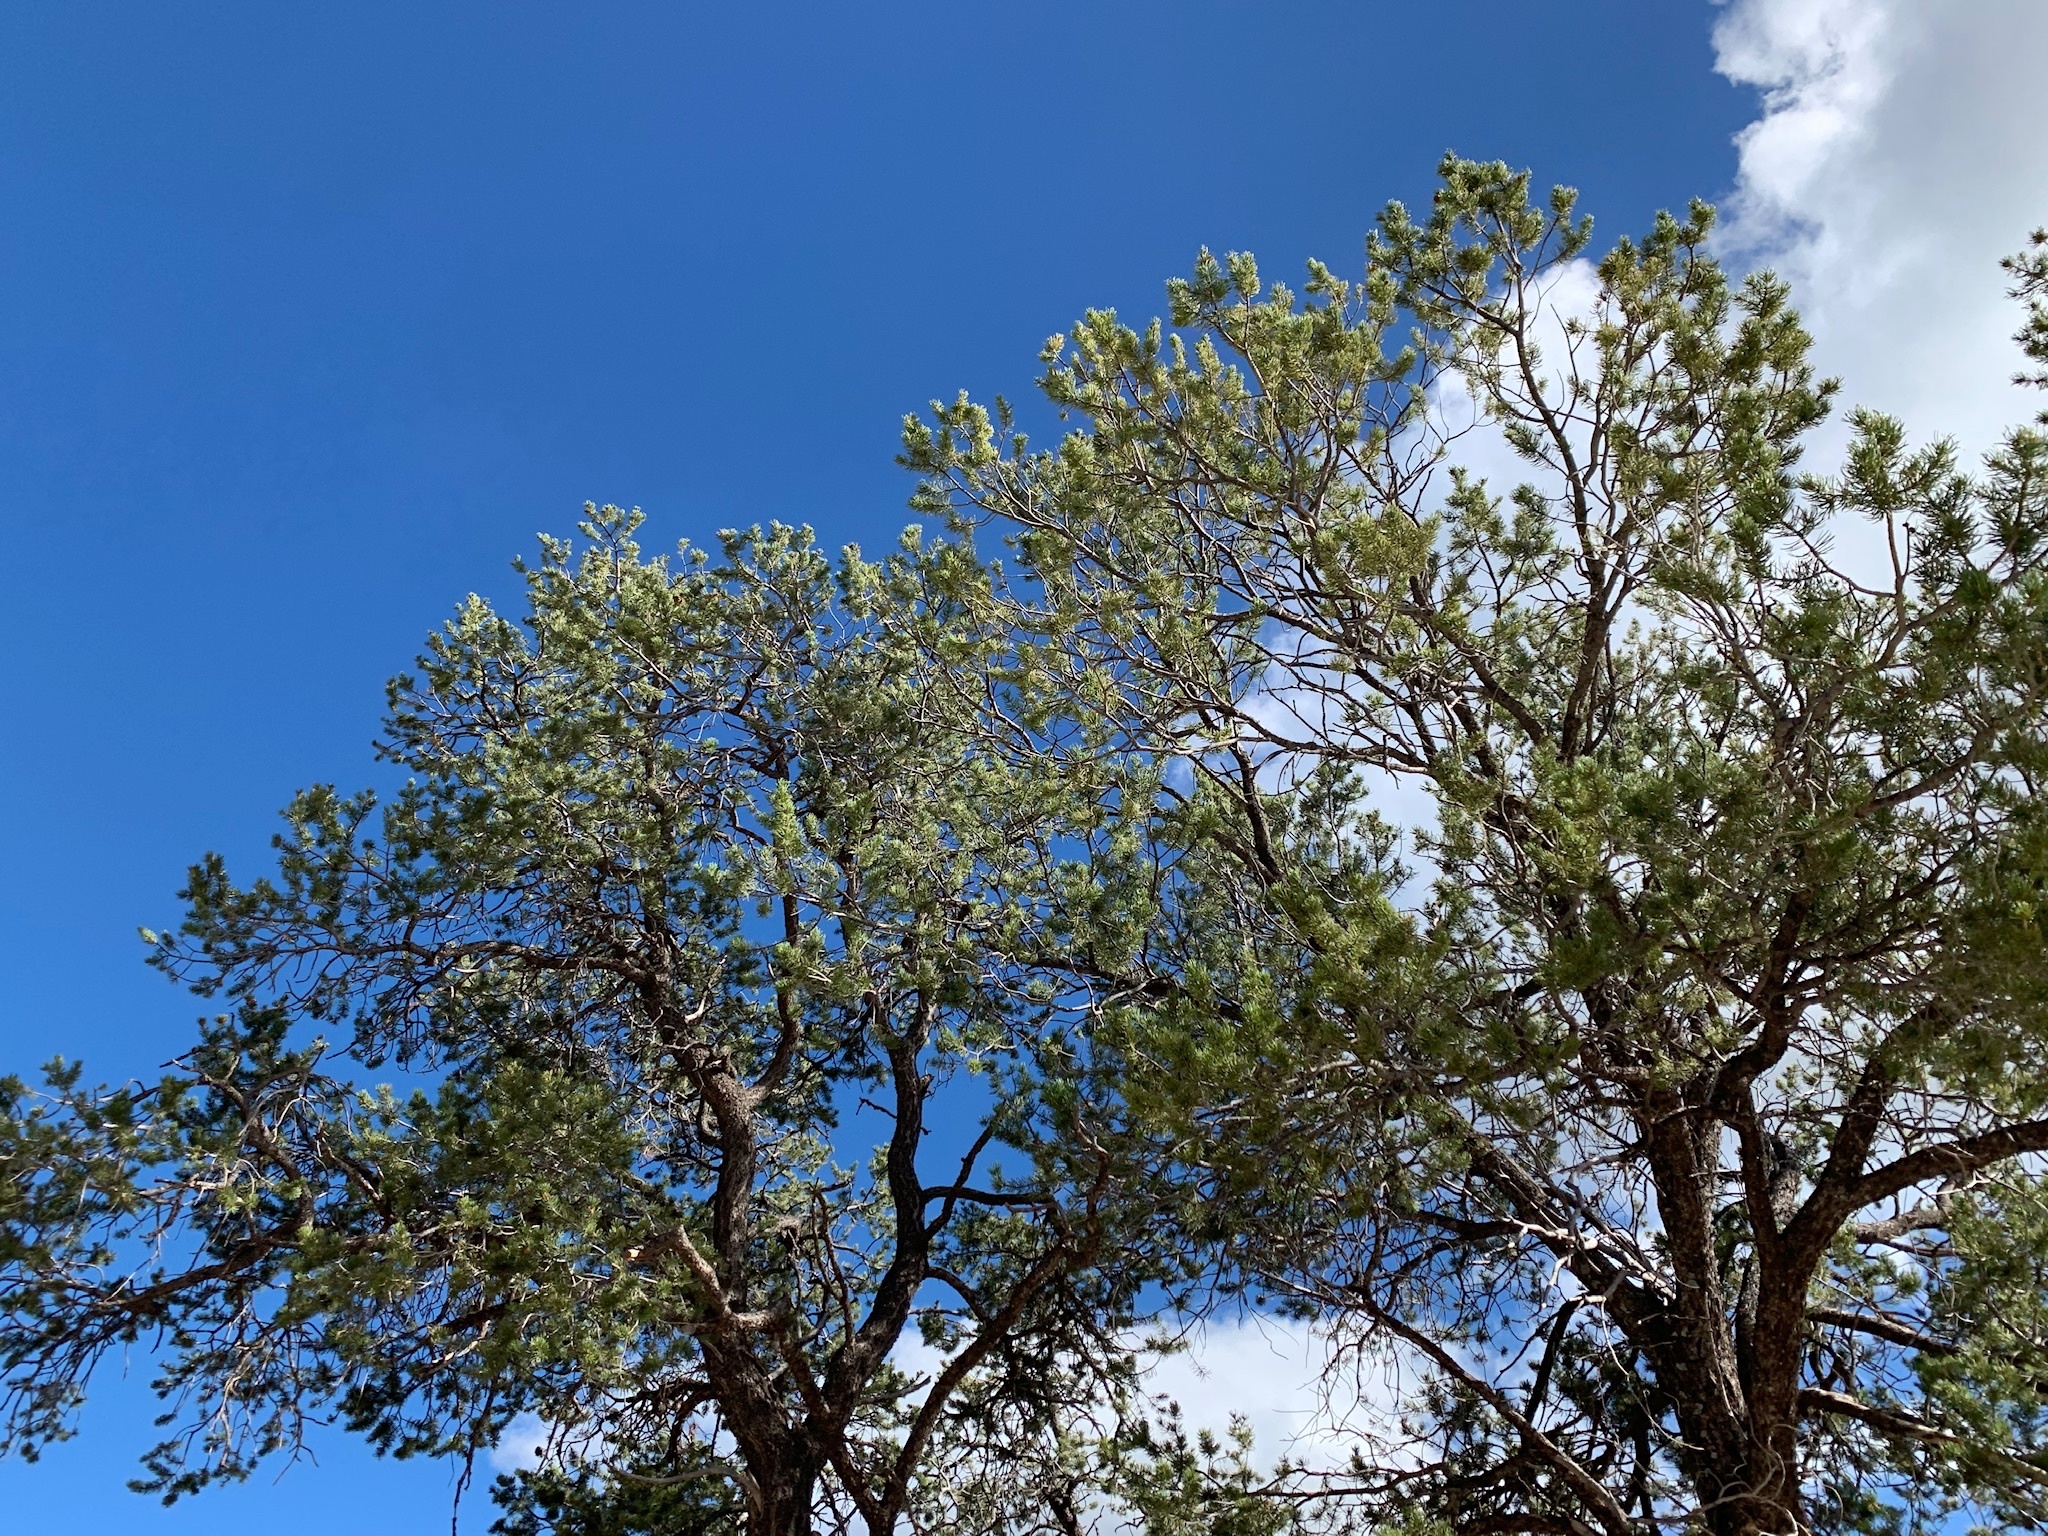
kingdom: Plantae
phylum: Tracheophyta
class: Pinopsida
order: Pinales
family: Pinaceae
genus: Pinus
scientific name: Pinus edulis
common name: Colorado pinyon
